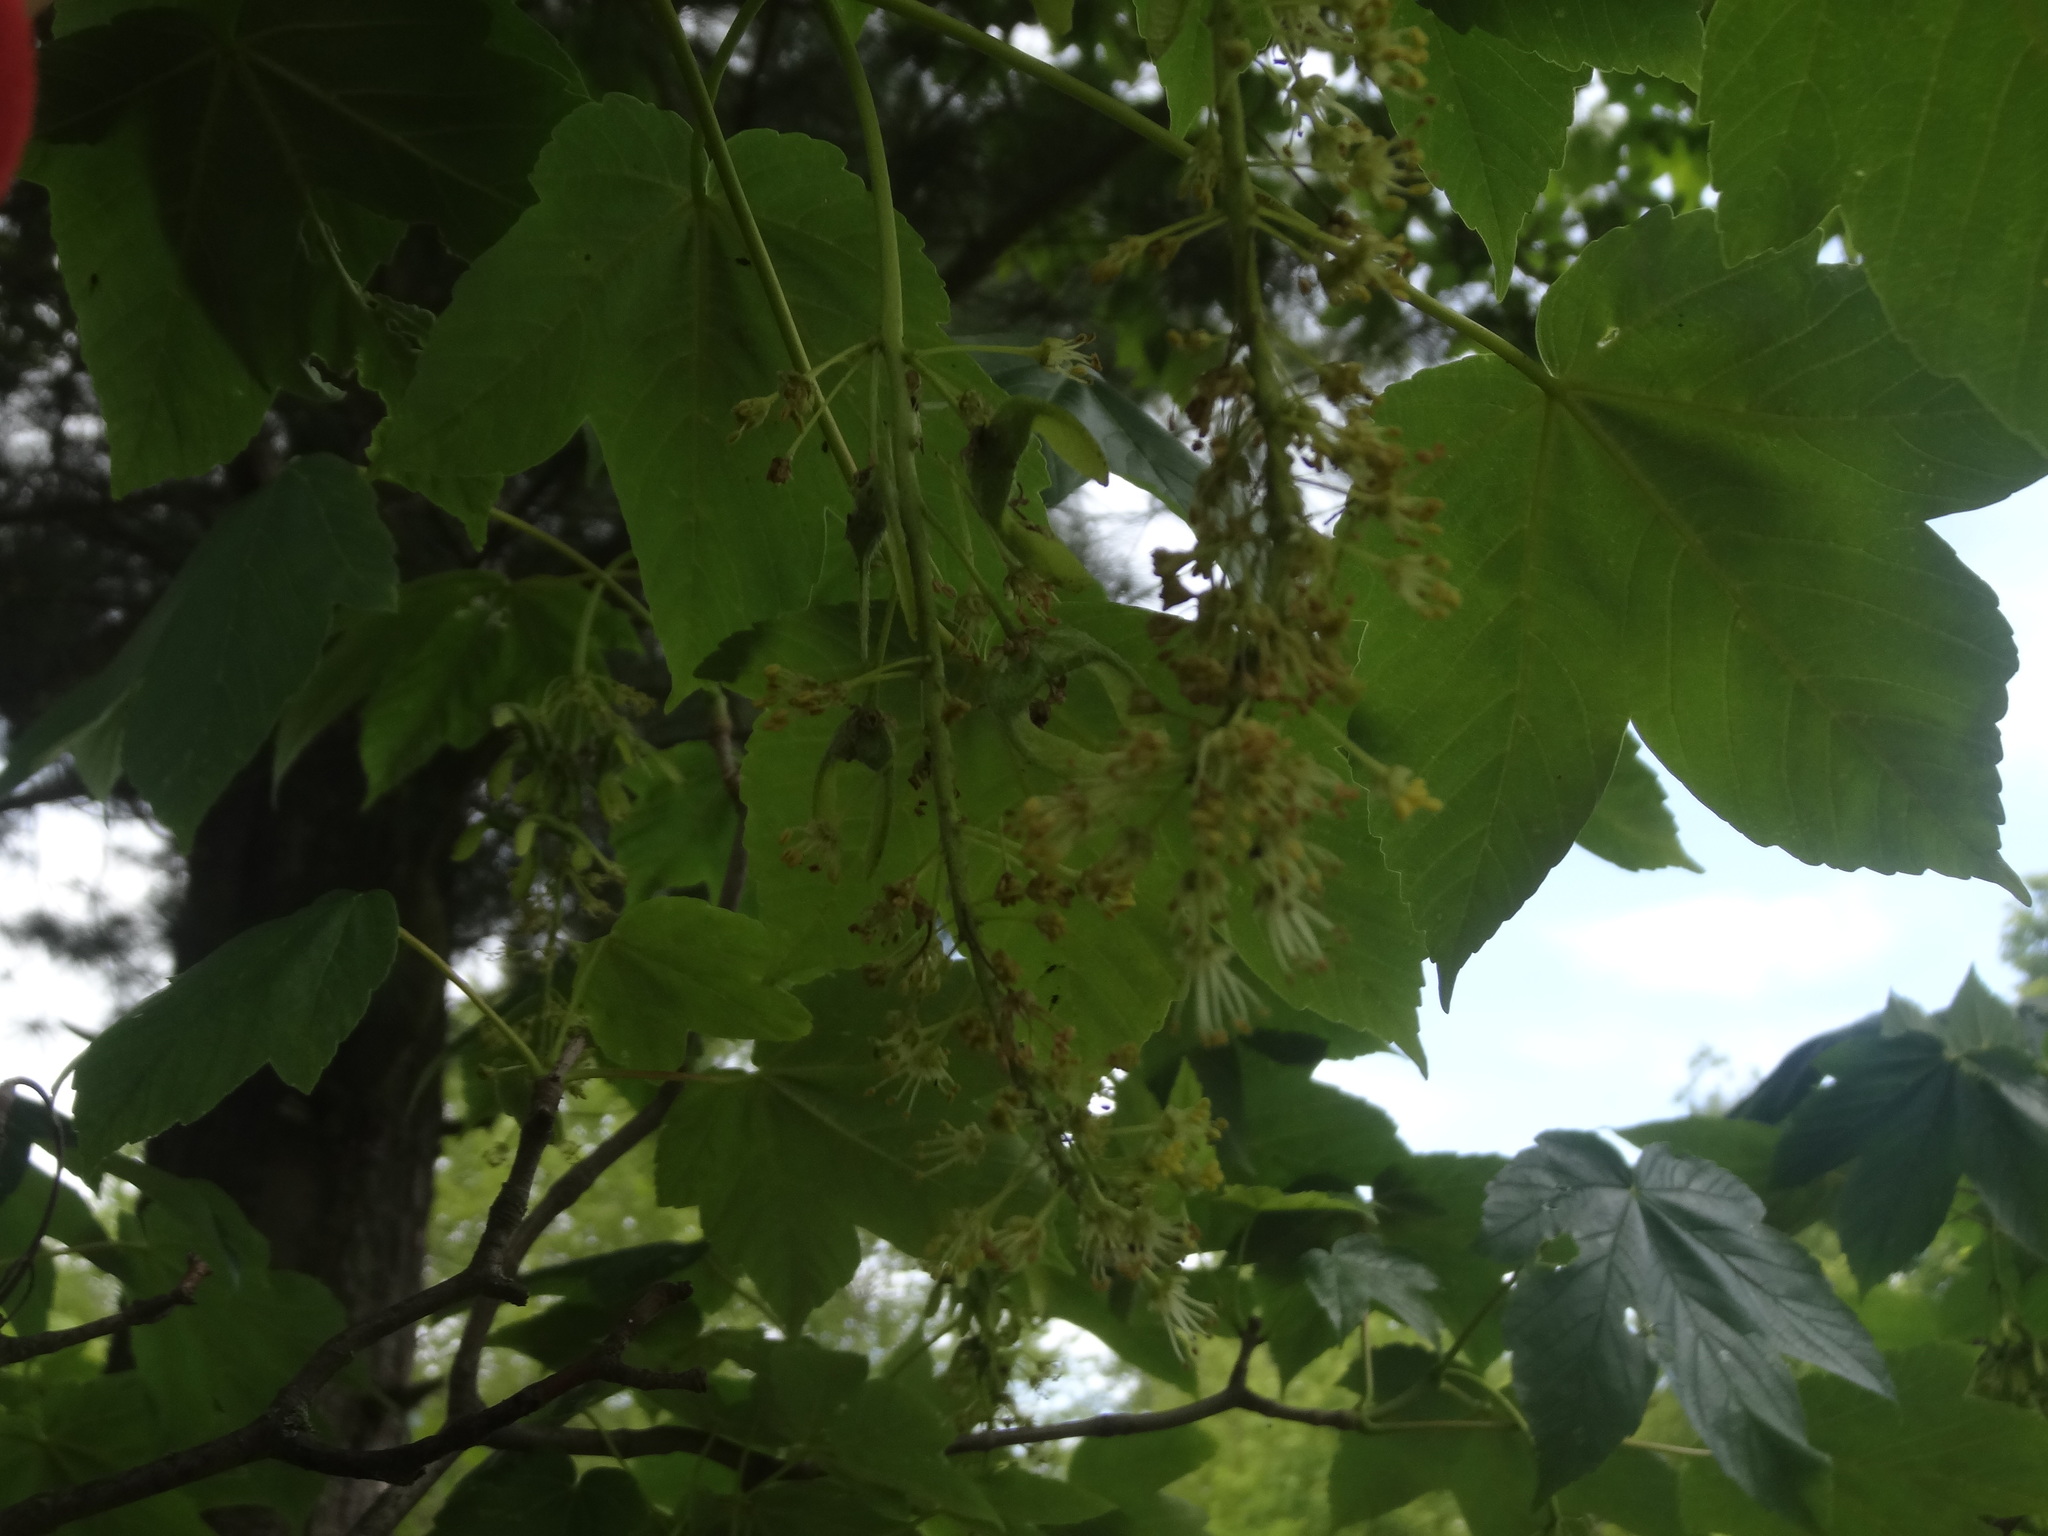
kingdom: Plantae
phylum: Tracheophyta
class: Magnoliopsida
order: Sapindales
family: Sapindaceae
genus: Acer
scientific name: Acer pseudoplatanus
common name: Sycamore
